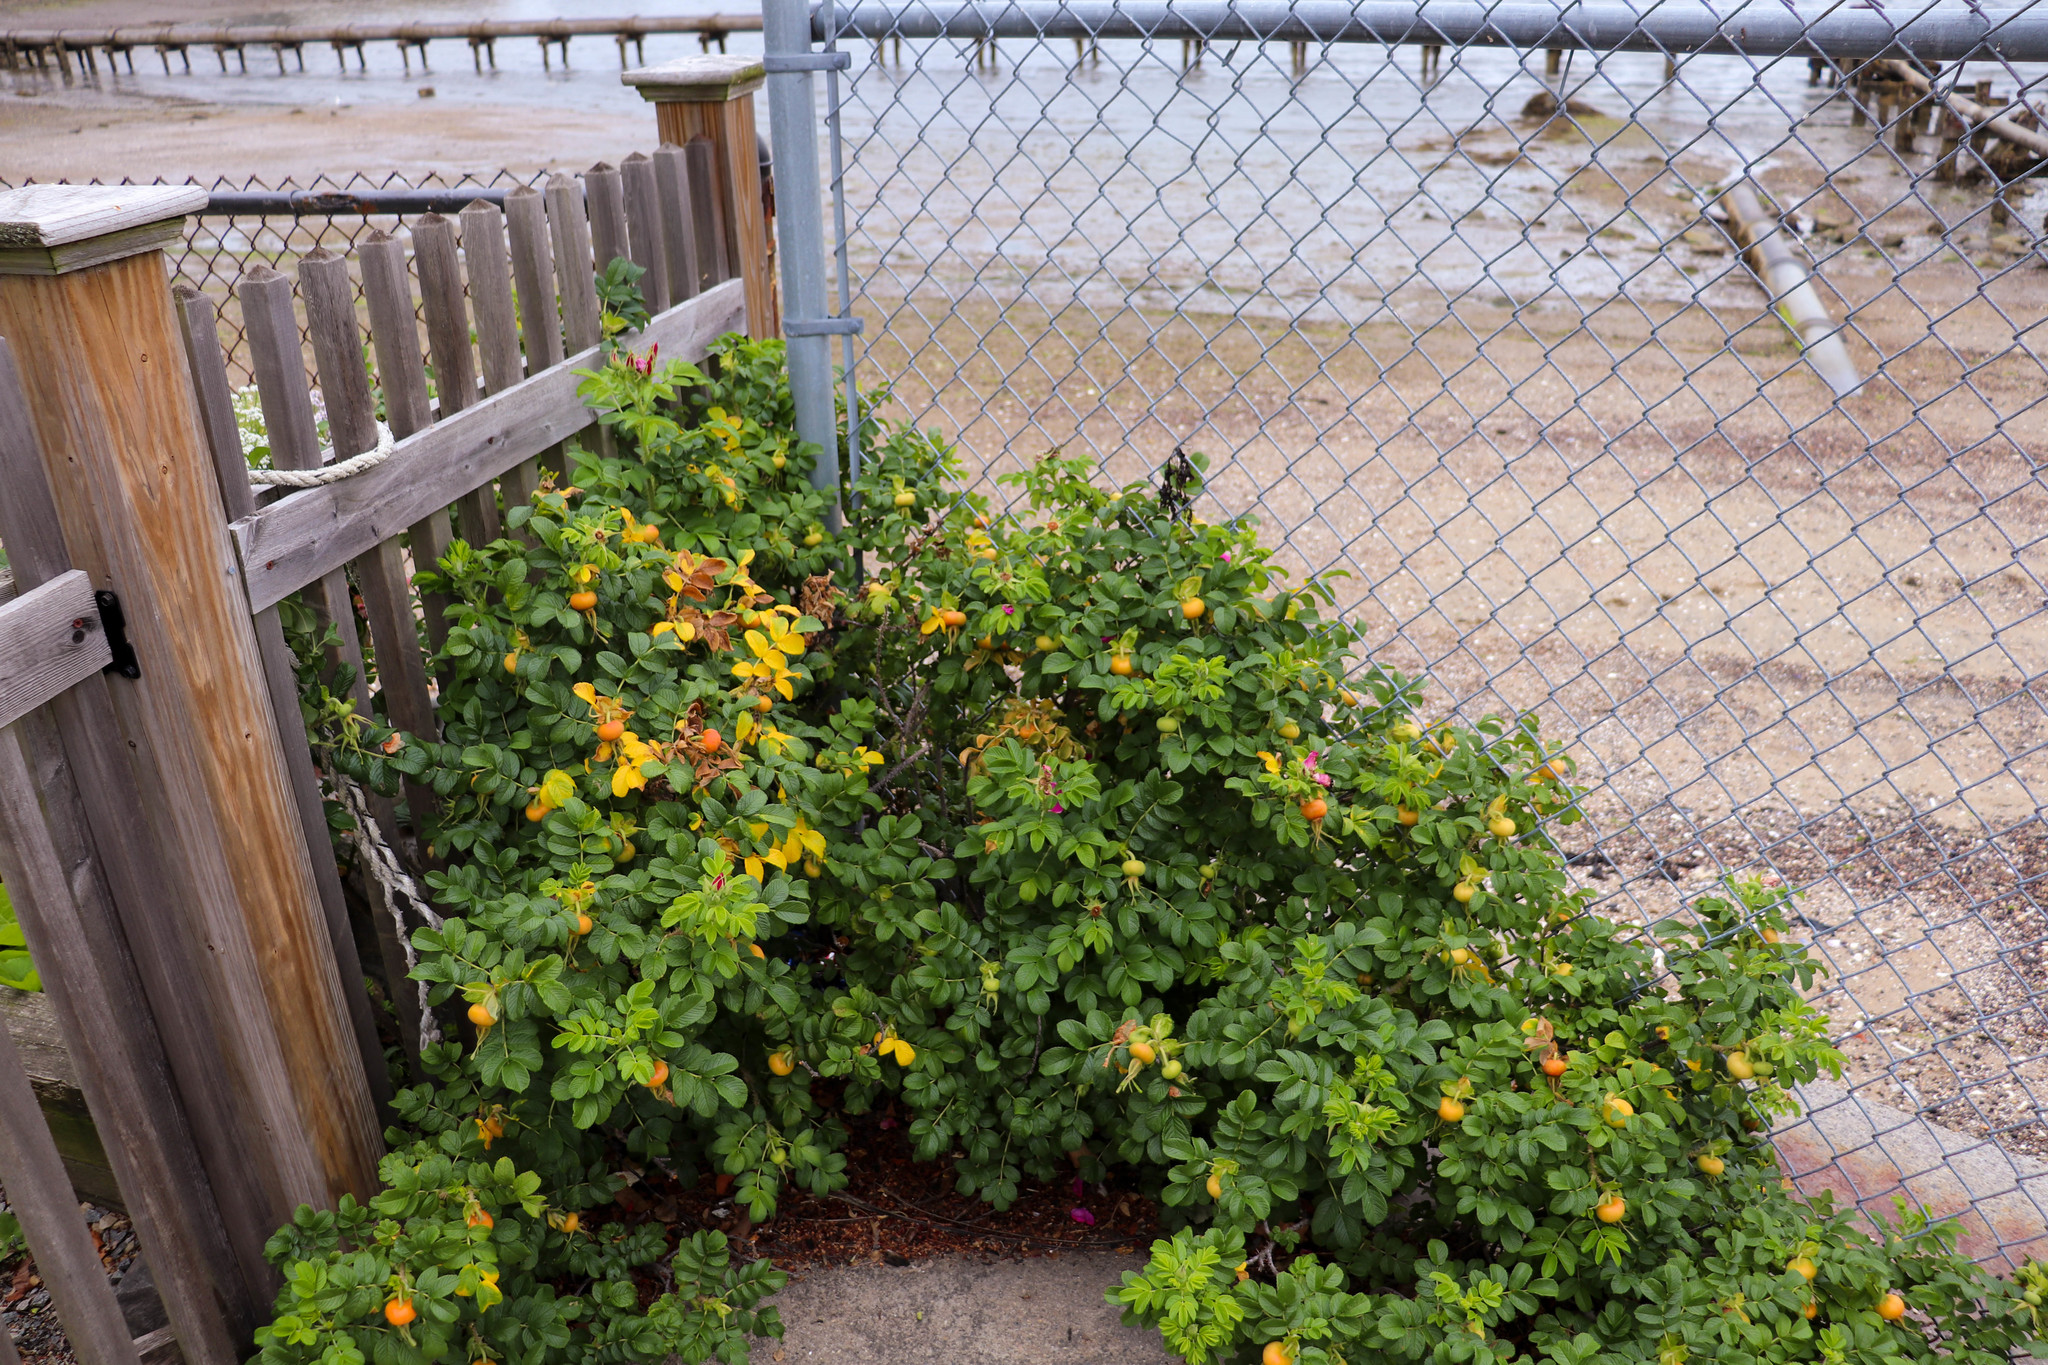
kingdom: Plantae
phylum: Tracheophyta
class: Magnoliopsida
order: Rosales
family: Rosaceae
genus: Rosa
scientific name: Rosa rugosa
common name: Japanese rose
